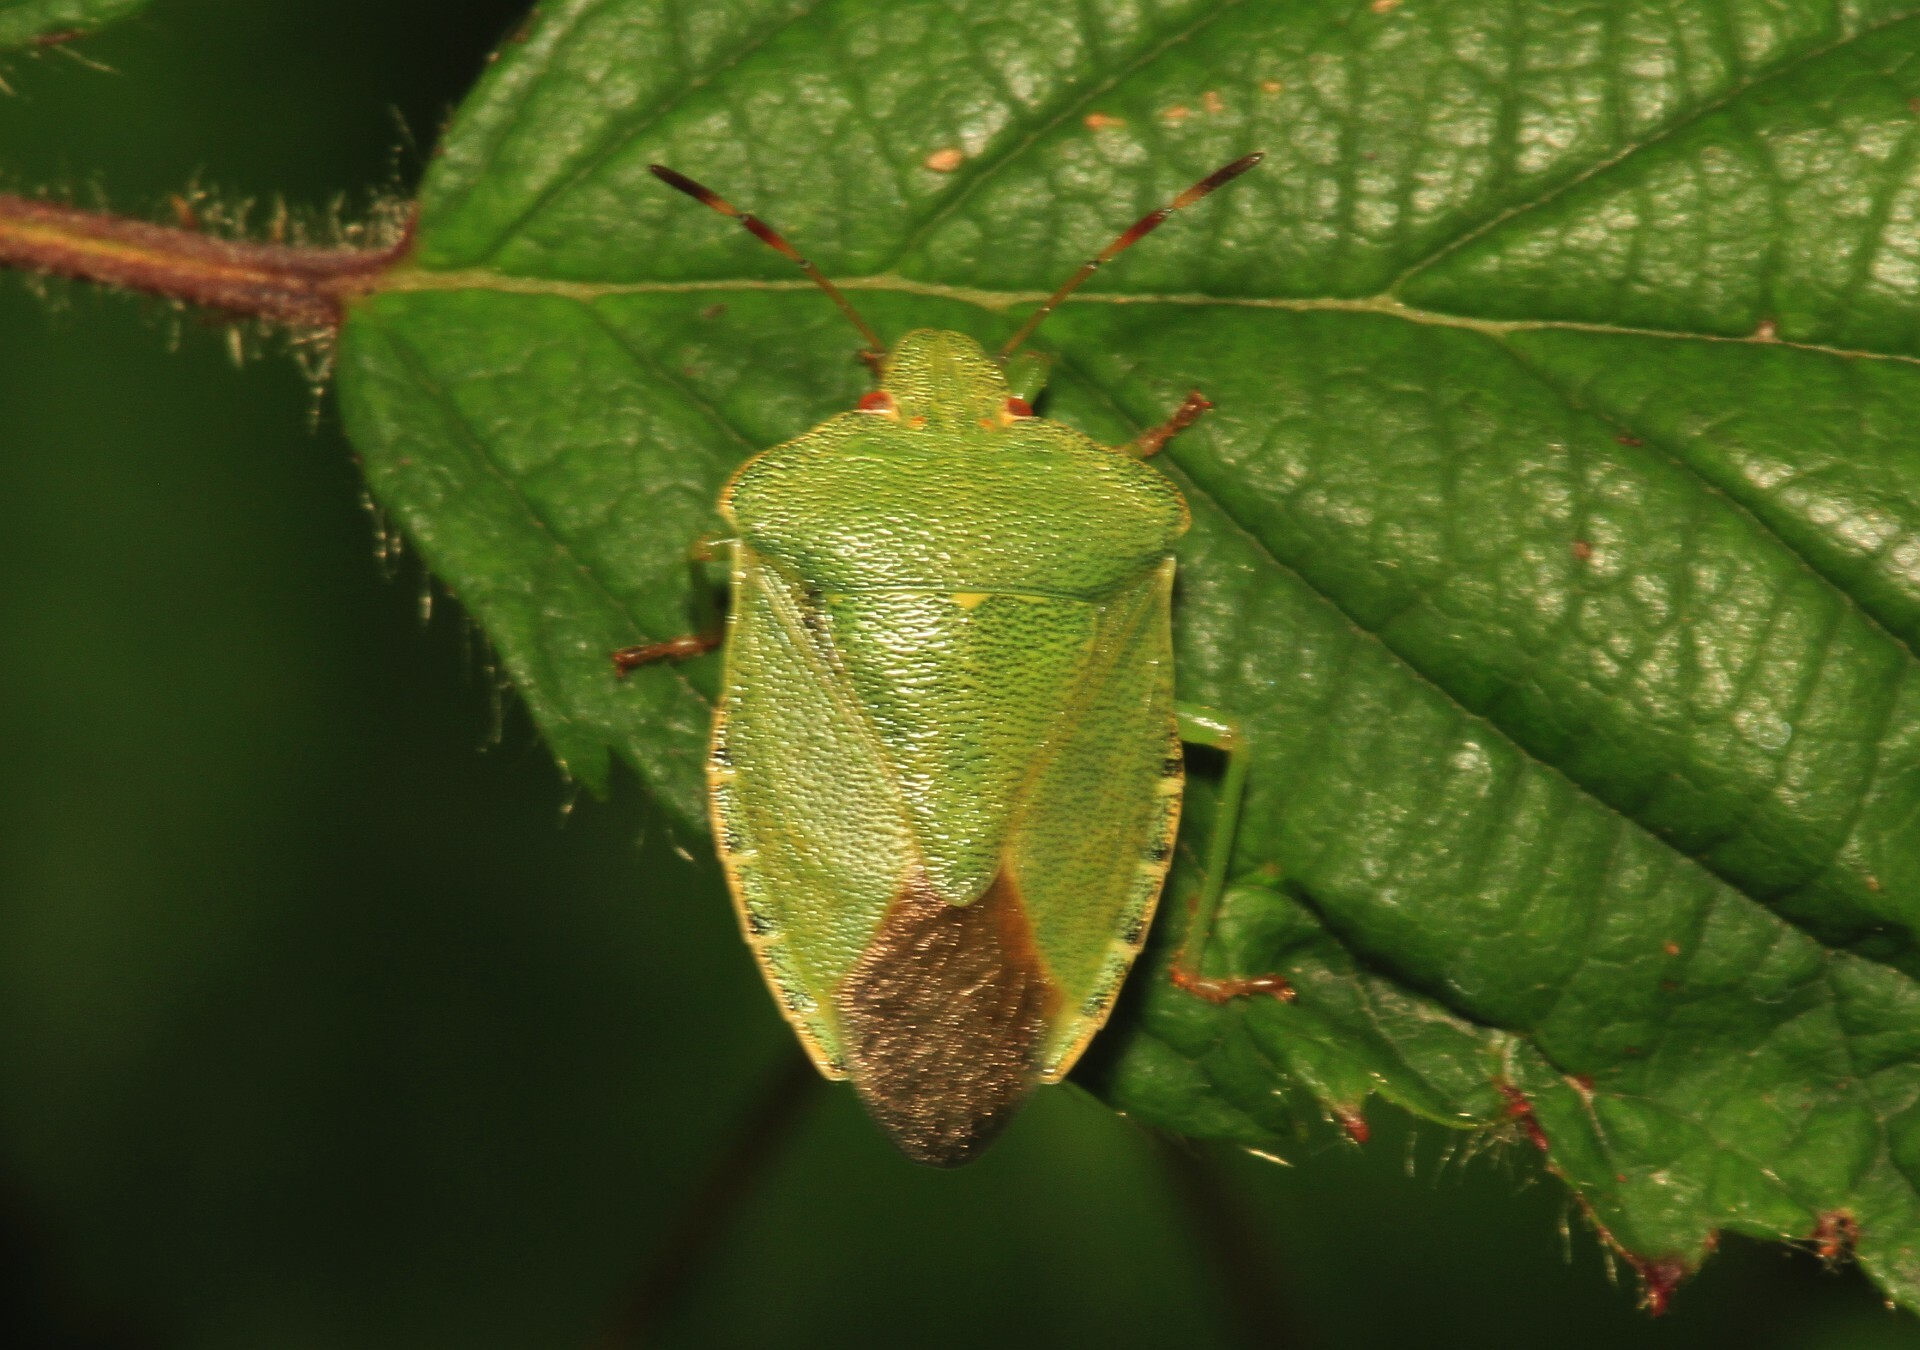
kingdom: Animalia
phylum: Arthropoda
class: Insecta
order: Hemiptera
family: Pentatomidae
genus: Palomena
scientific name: Palomena prasina
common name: Green shieldbug
